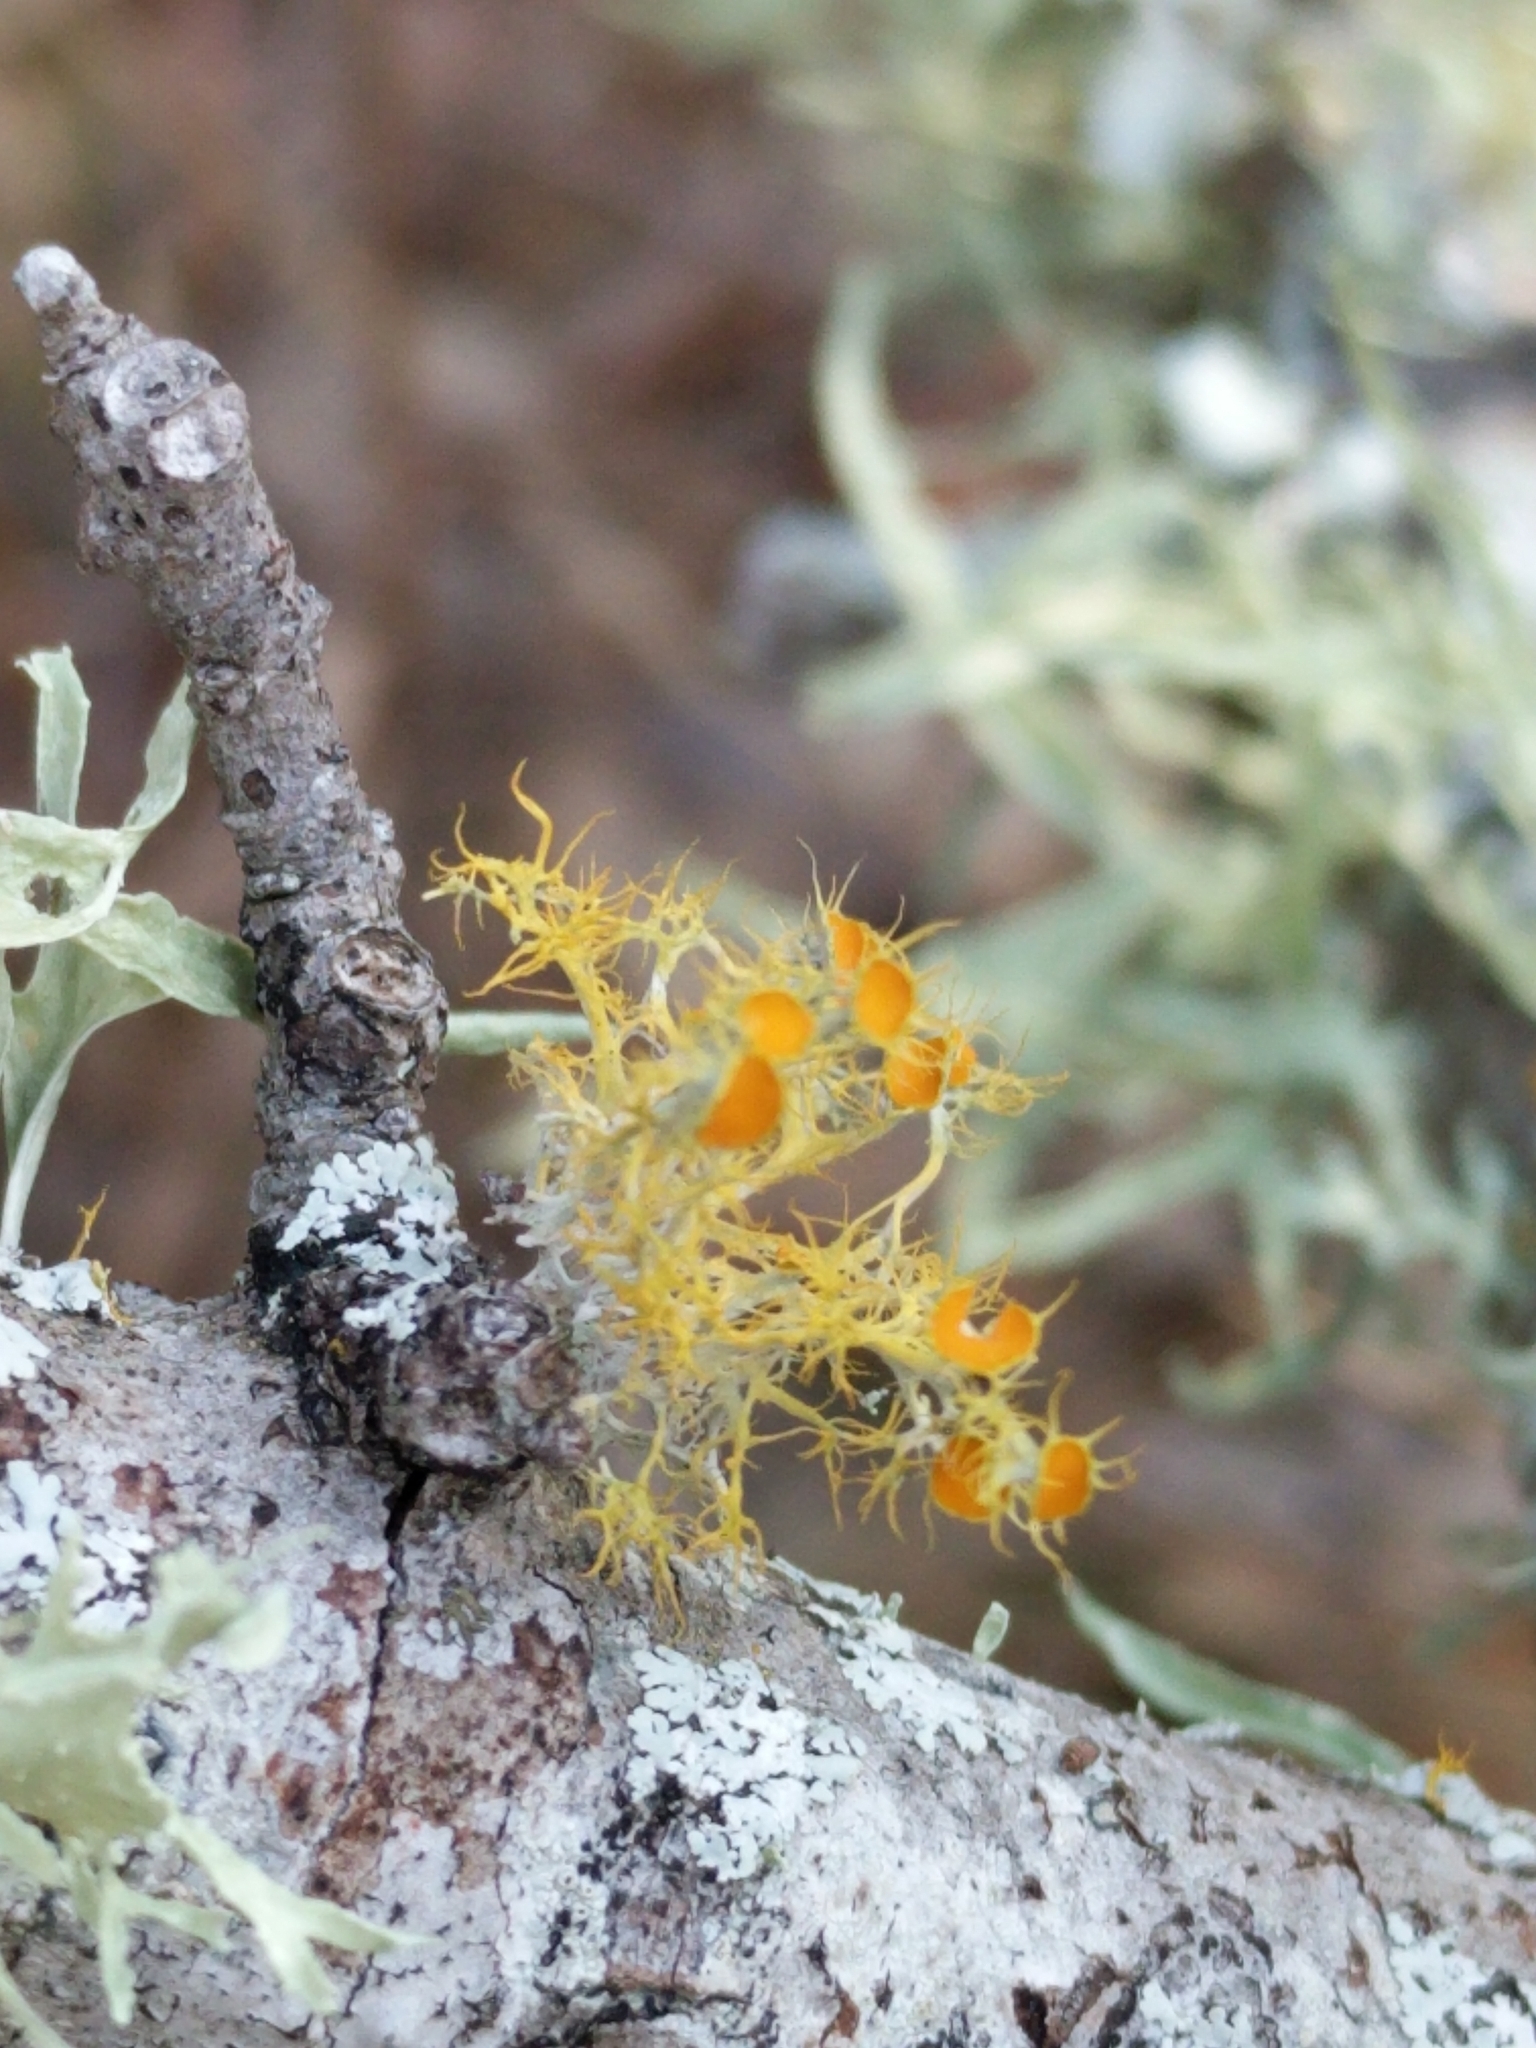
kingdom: Fungi
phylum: Ascomycota
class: Lecanoromycetes
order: Teloschistales
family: Teloschistaceae
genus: Niorma
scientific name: Niorma chrysophthalma
